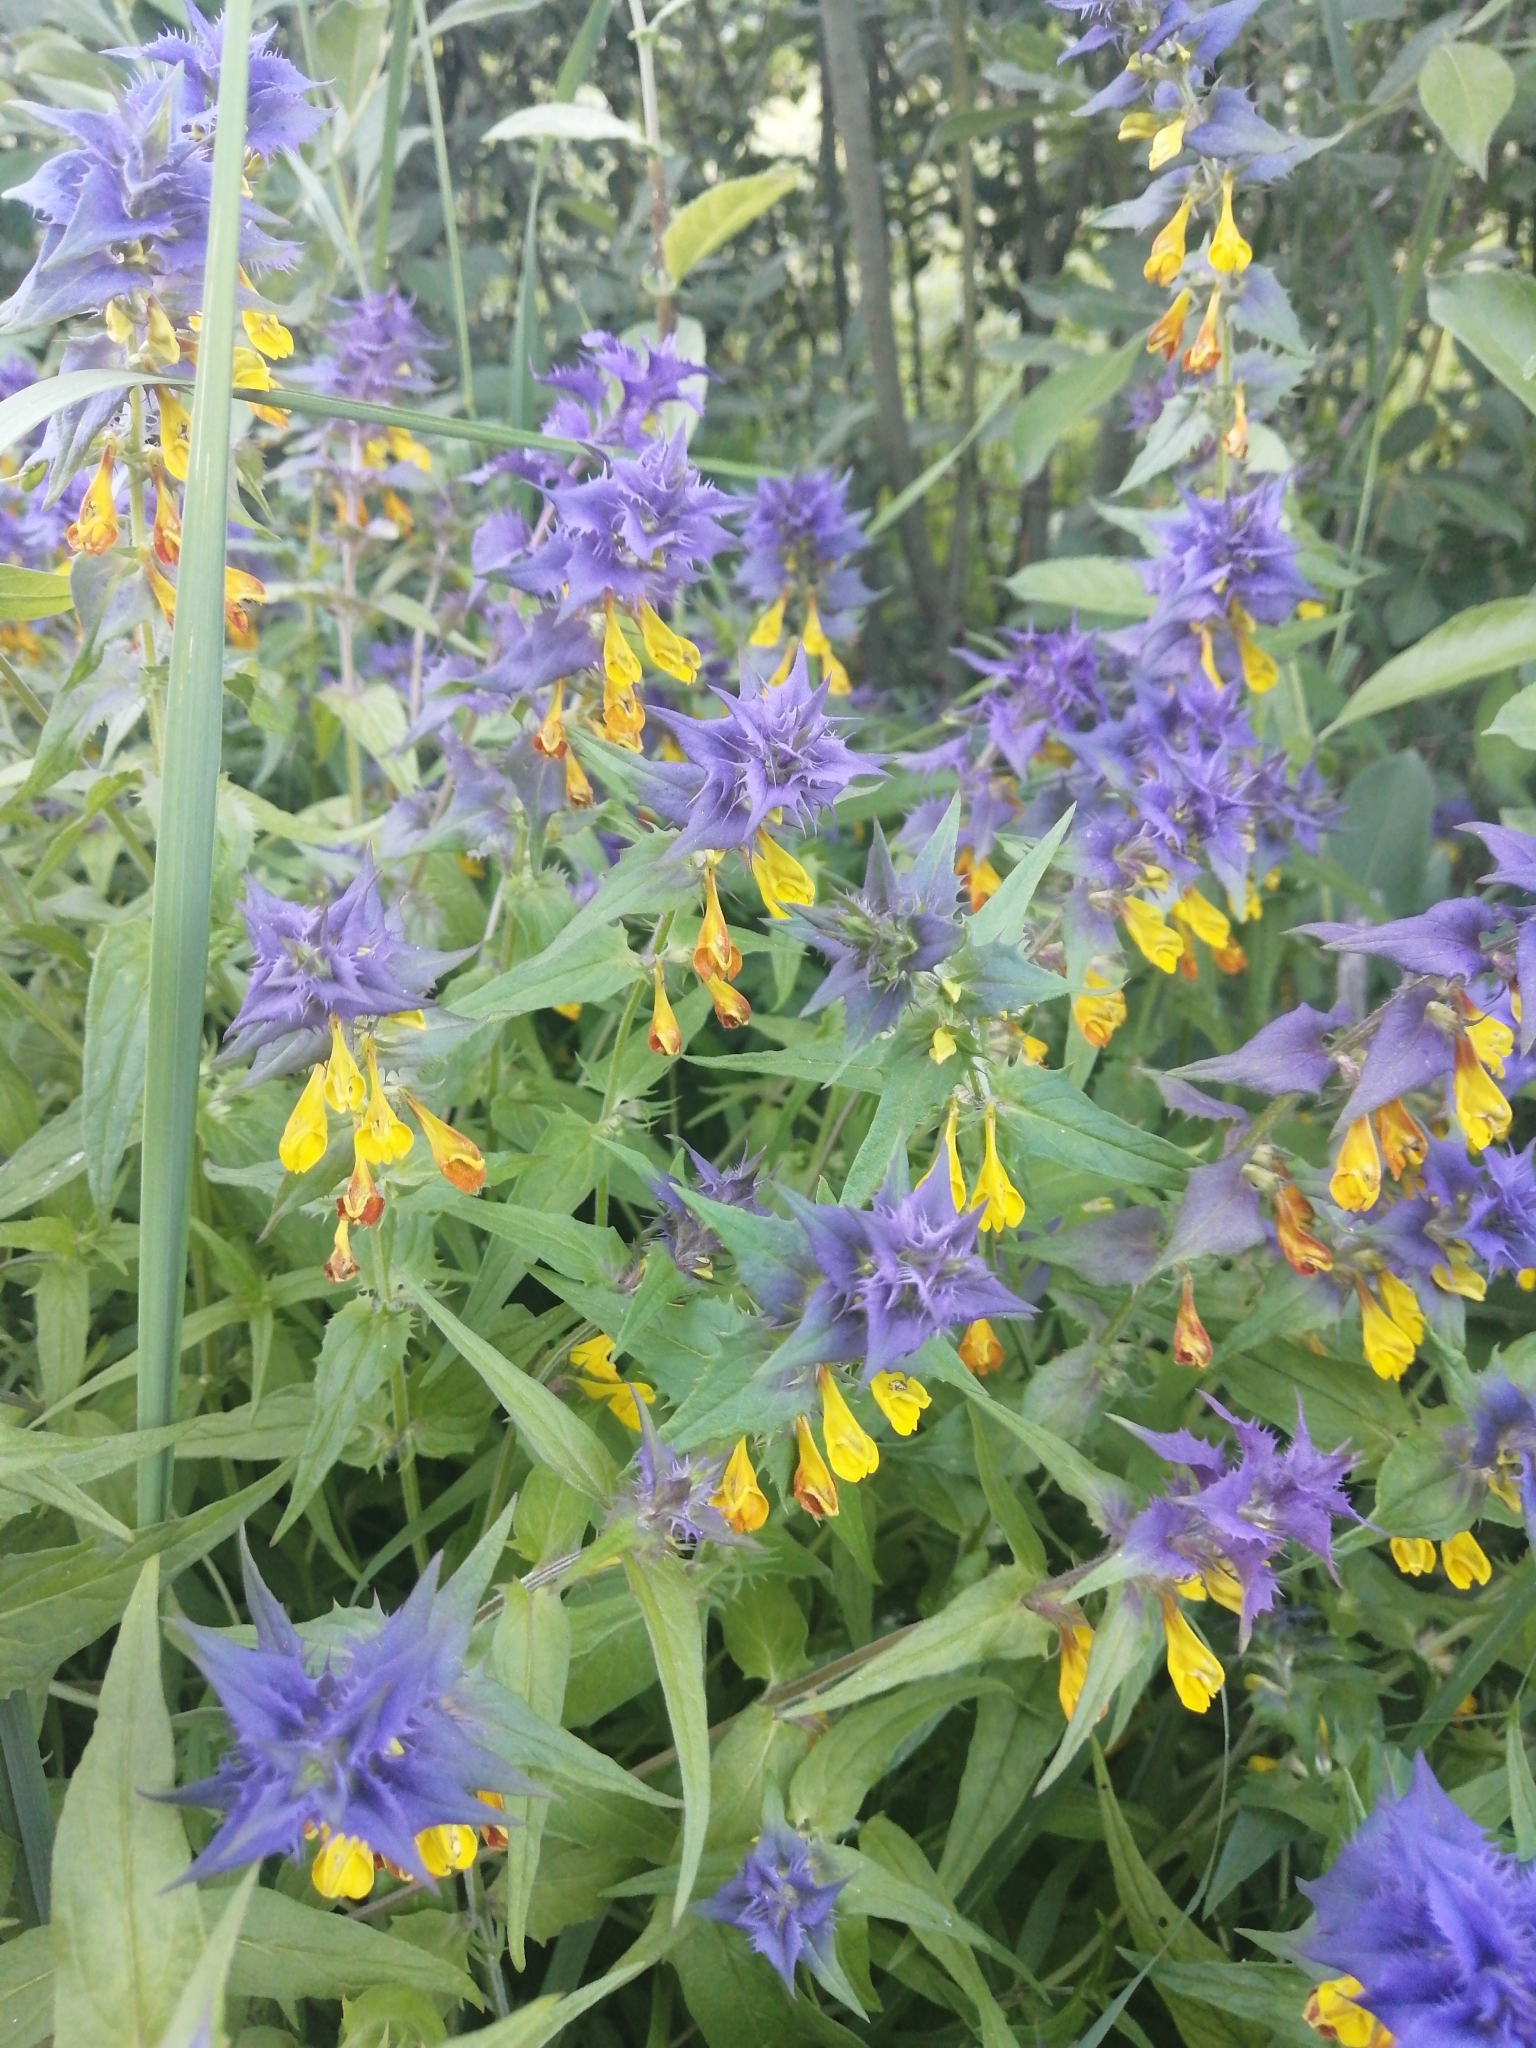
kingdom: Plantae
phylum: Tracheophyta
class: Magnoliopsida
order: Lamiales
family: Orobanchaceae
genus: Melampyrum
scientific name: Melampyrum nemorosum
